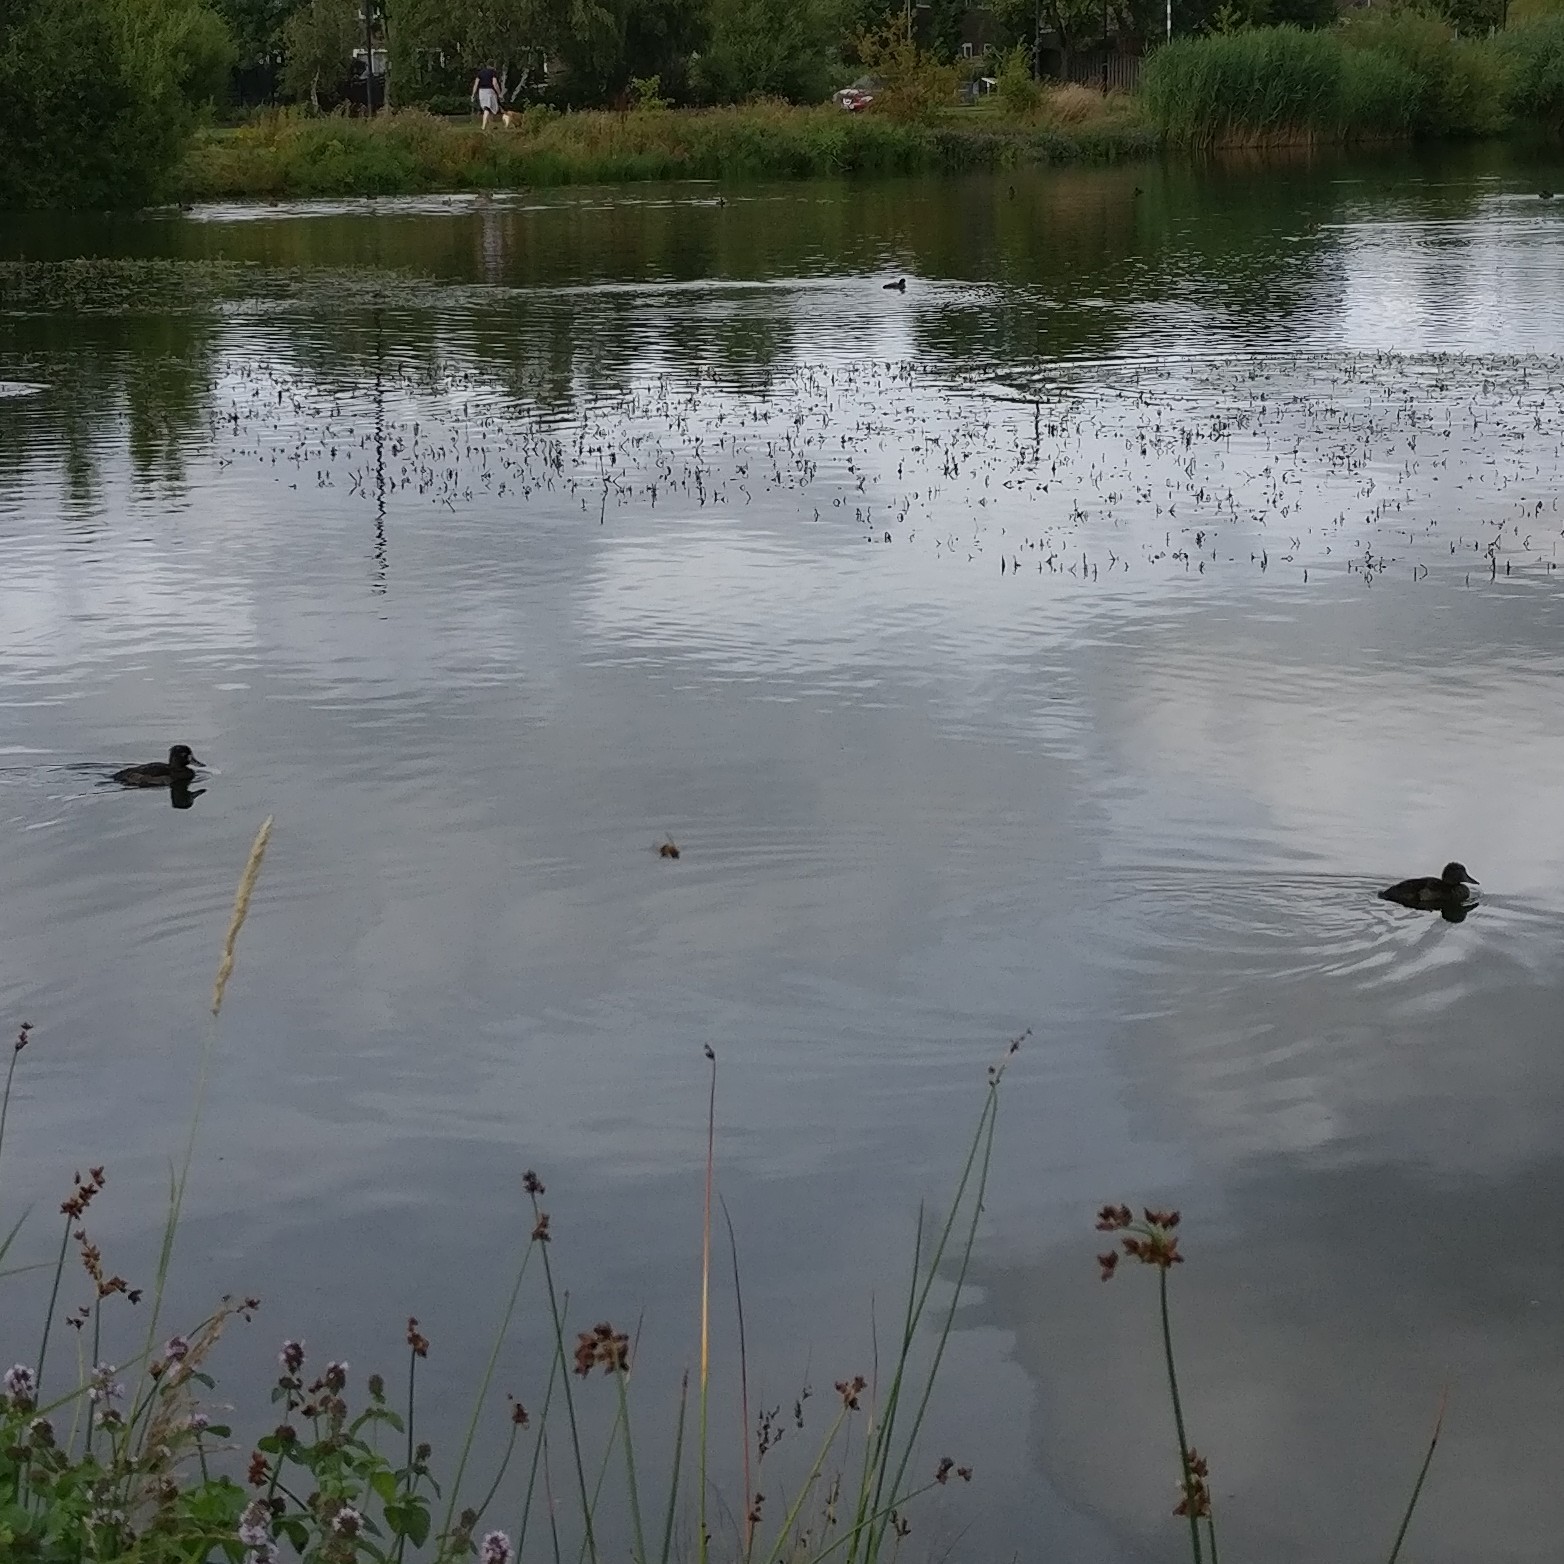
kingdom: Animalia
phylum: Chordata
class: Aves
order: Anseriformes
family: Anatidae
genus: Aythya
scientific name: Aythya fuligula
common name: Tufted duck
